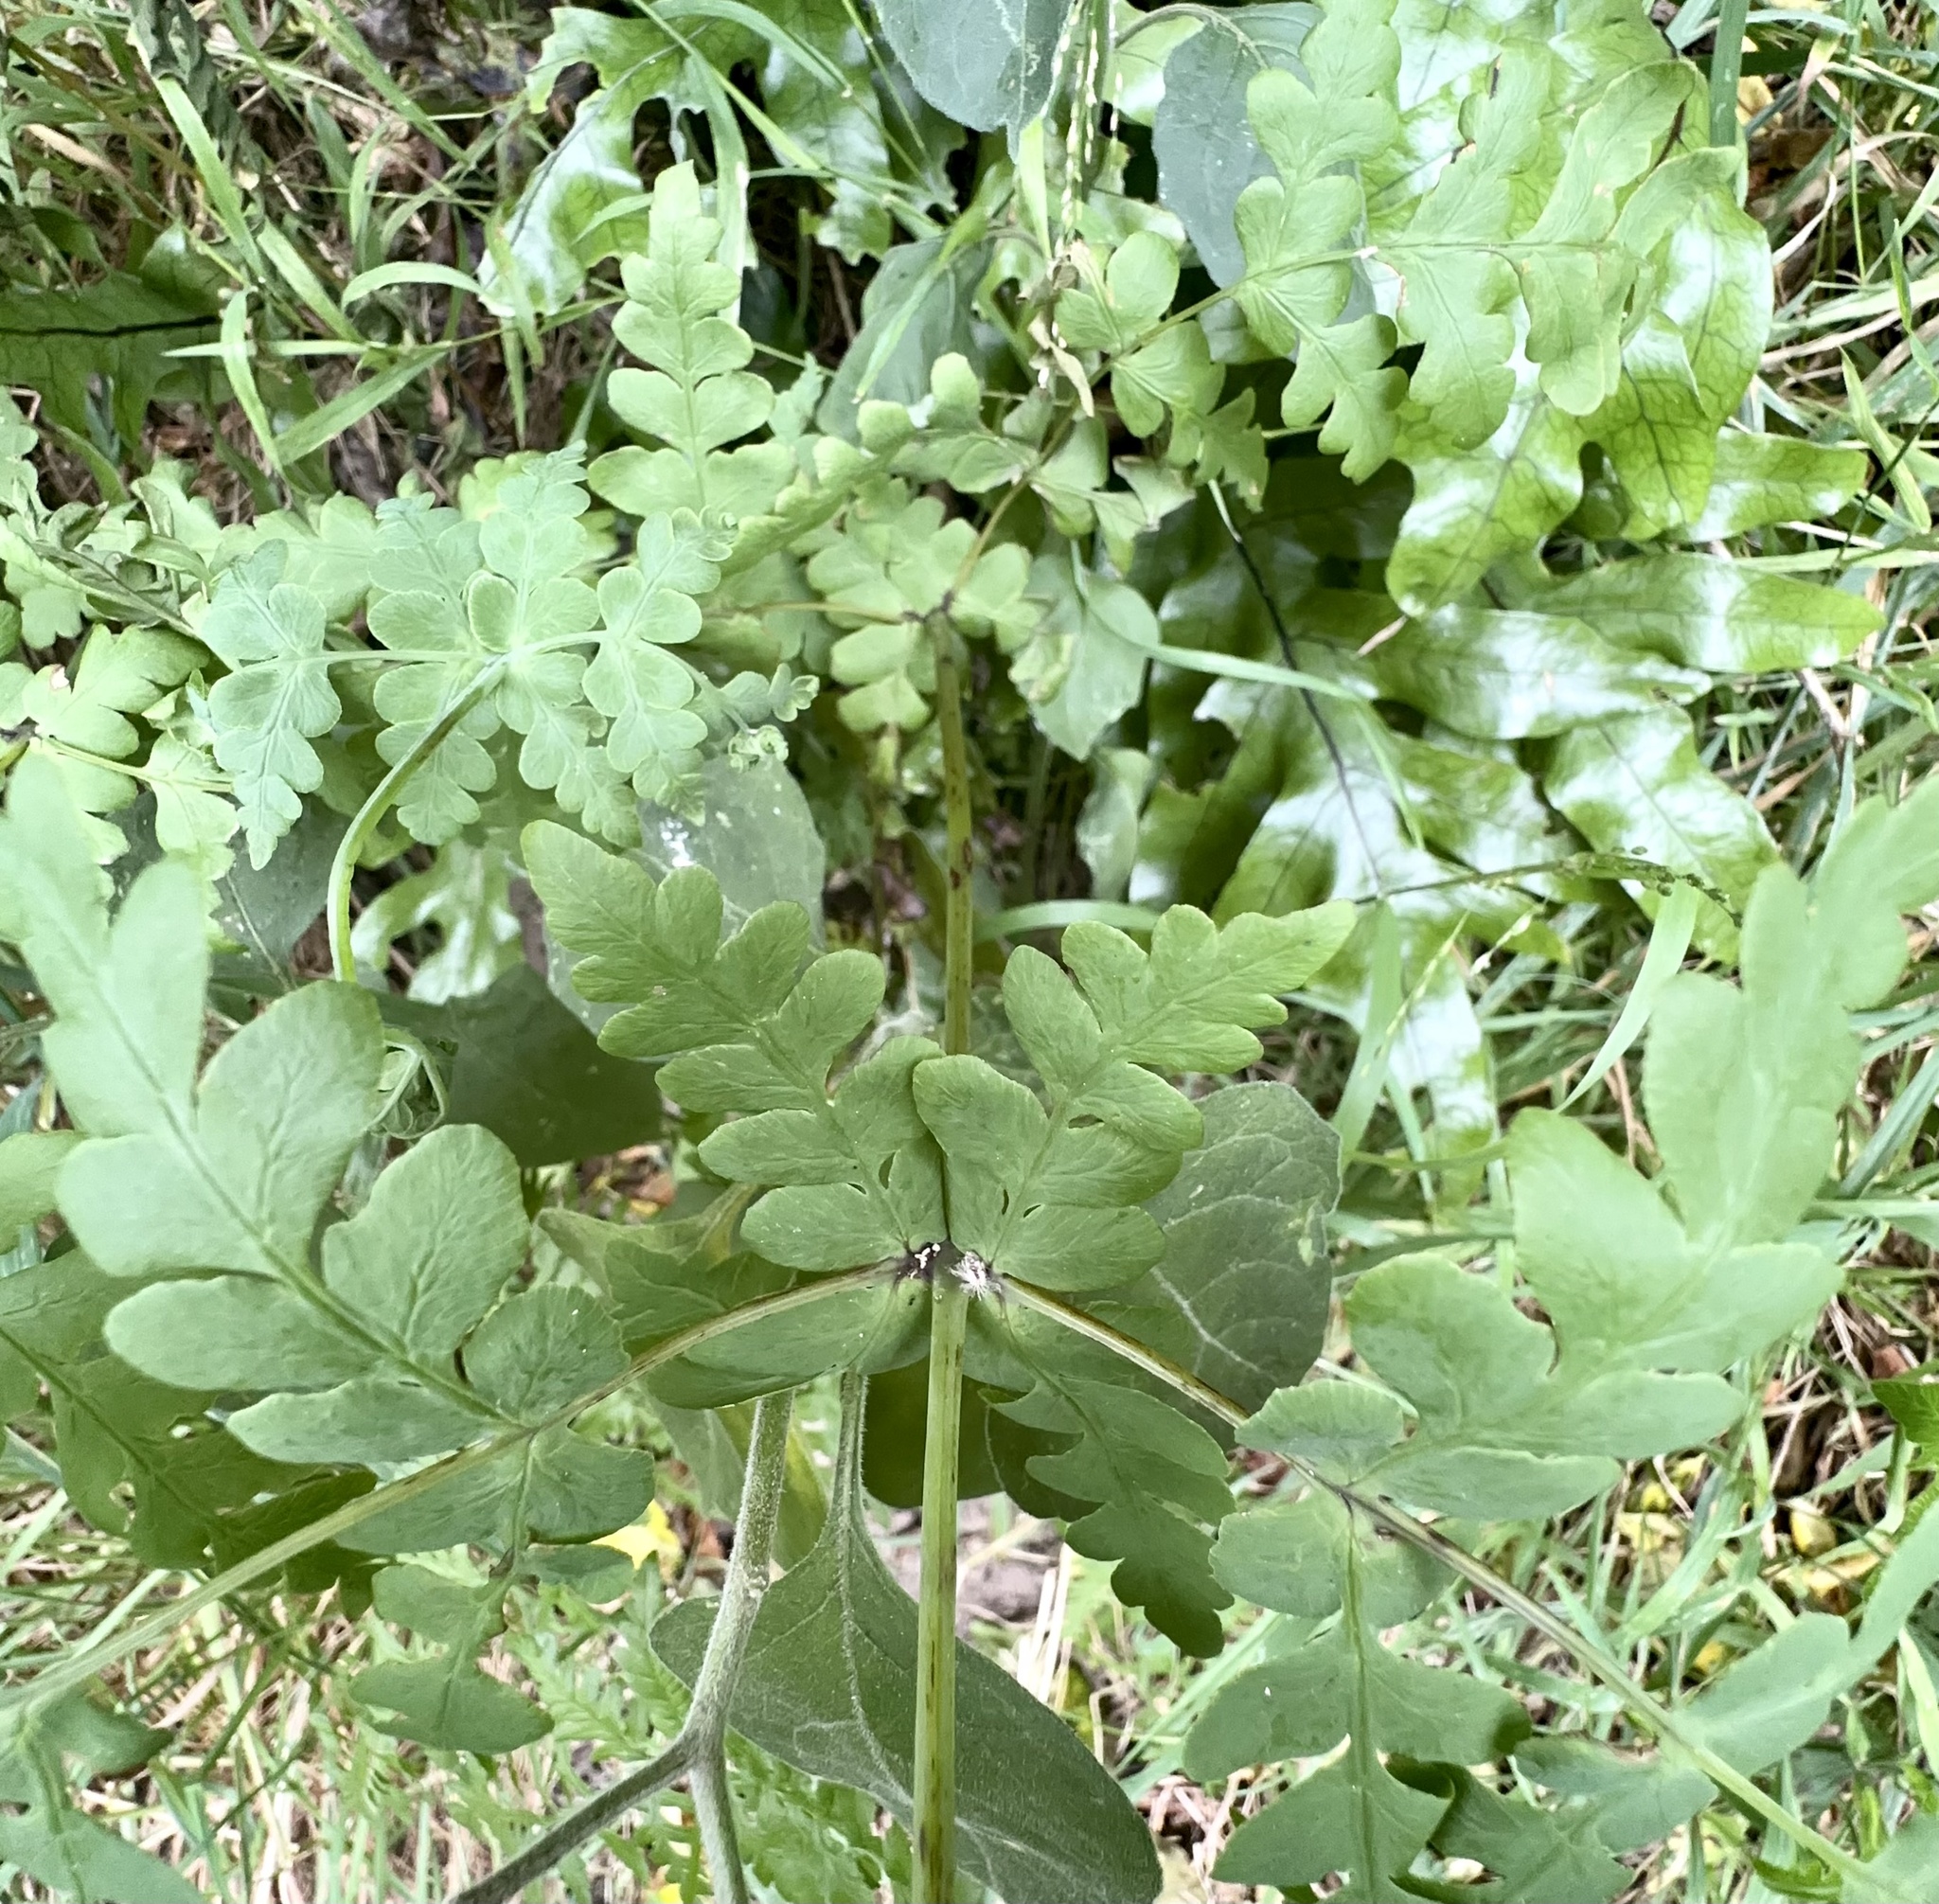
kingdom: Plantae
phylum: Tracheophyta
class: Polypodiopsida
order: Polypodiales
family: Dennstaedtiaceae
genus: Histiopteris
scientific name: Histiopteris incisa
